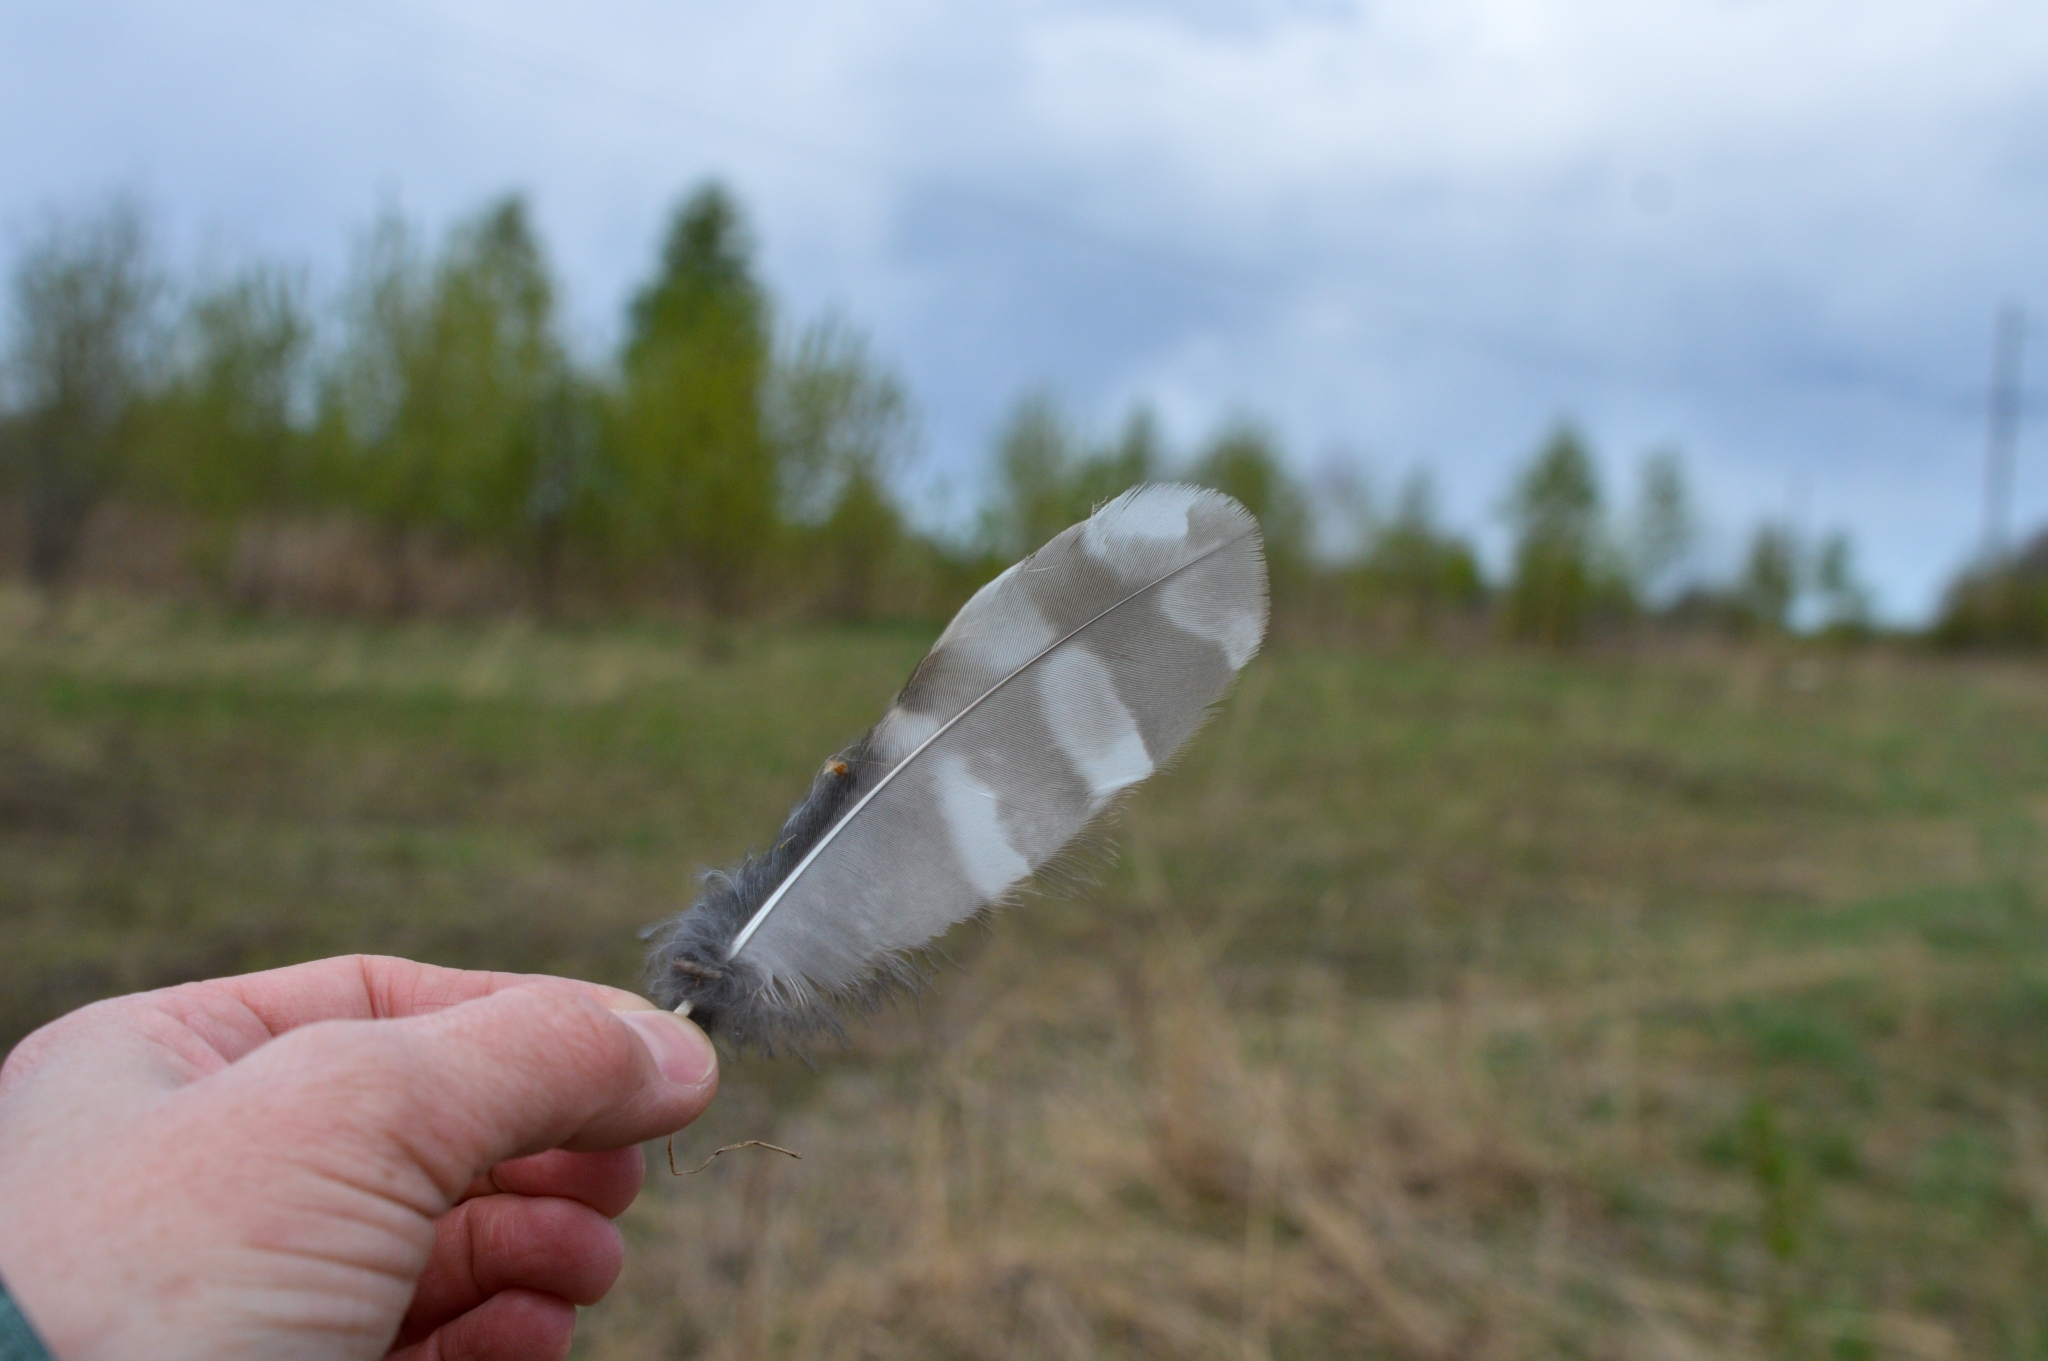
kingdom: Animalia
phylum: Chordata
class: Aves
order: Strigiformes
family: Strigidae
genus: Strix
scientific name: Strix uralensis
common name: Ural owl
